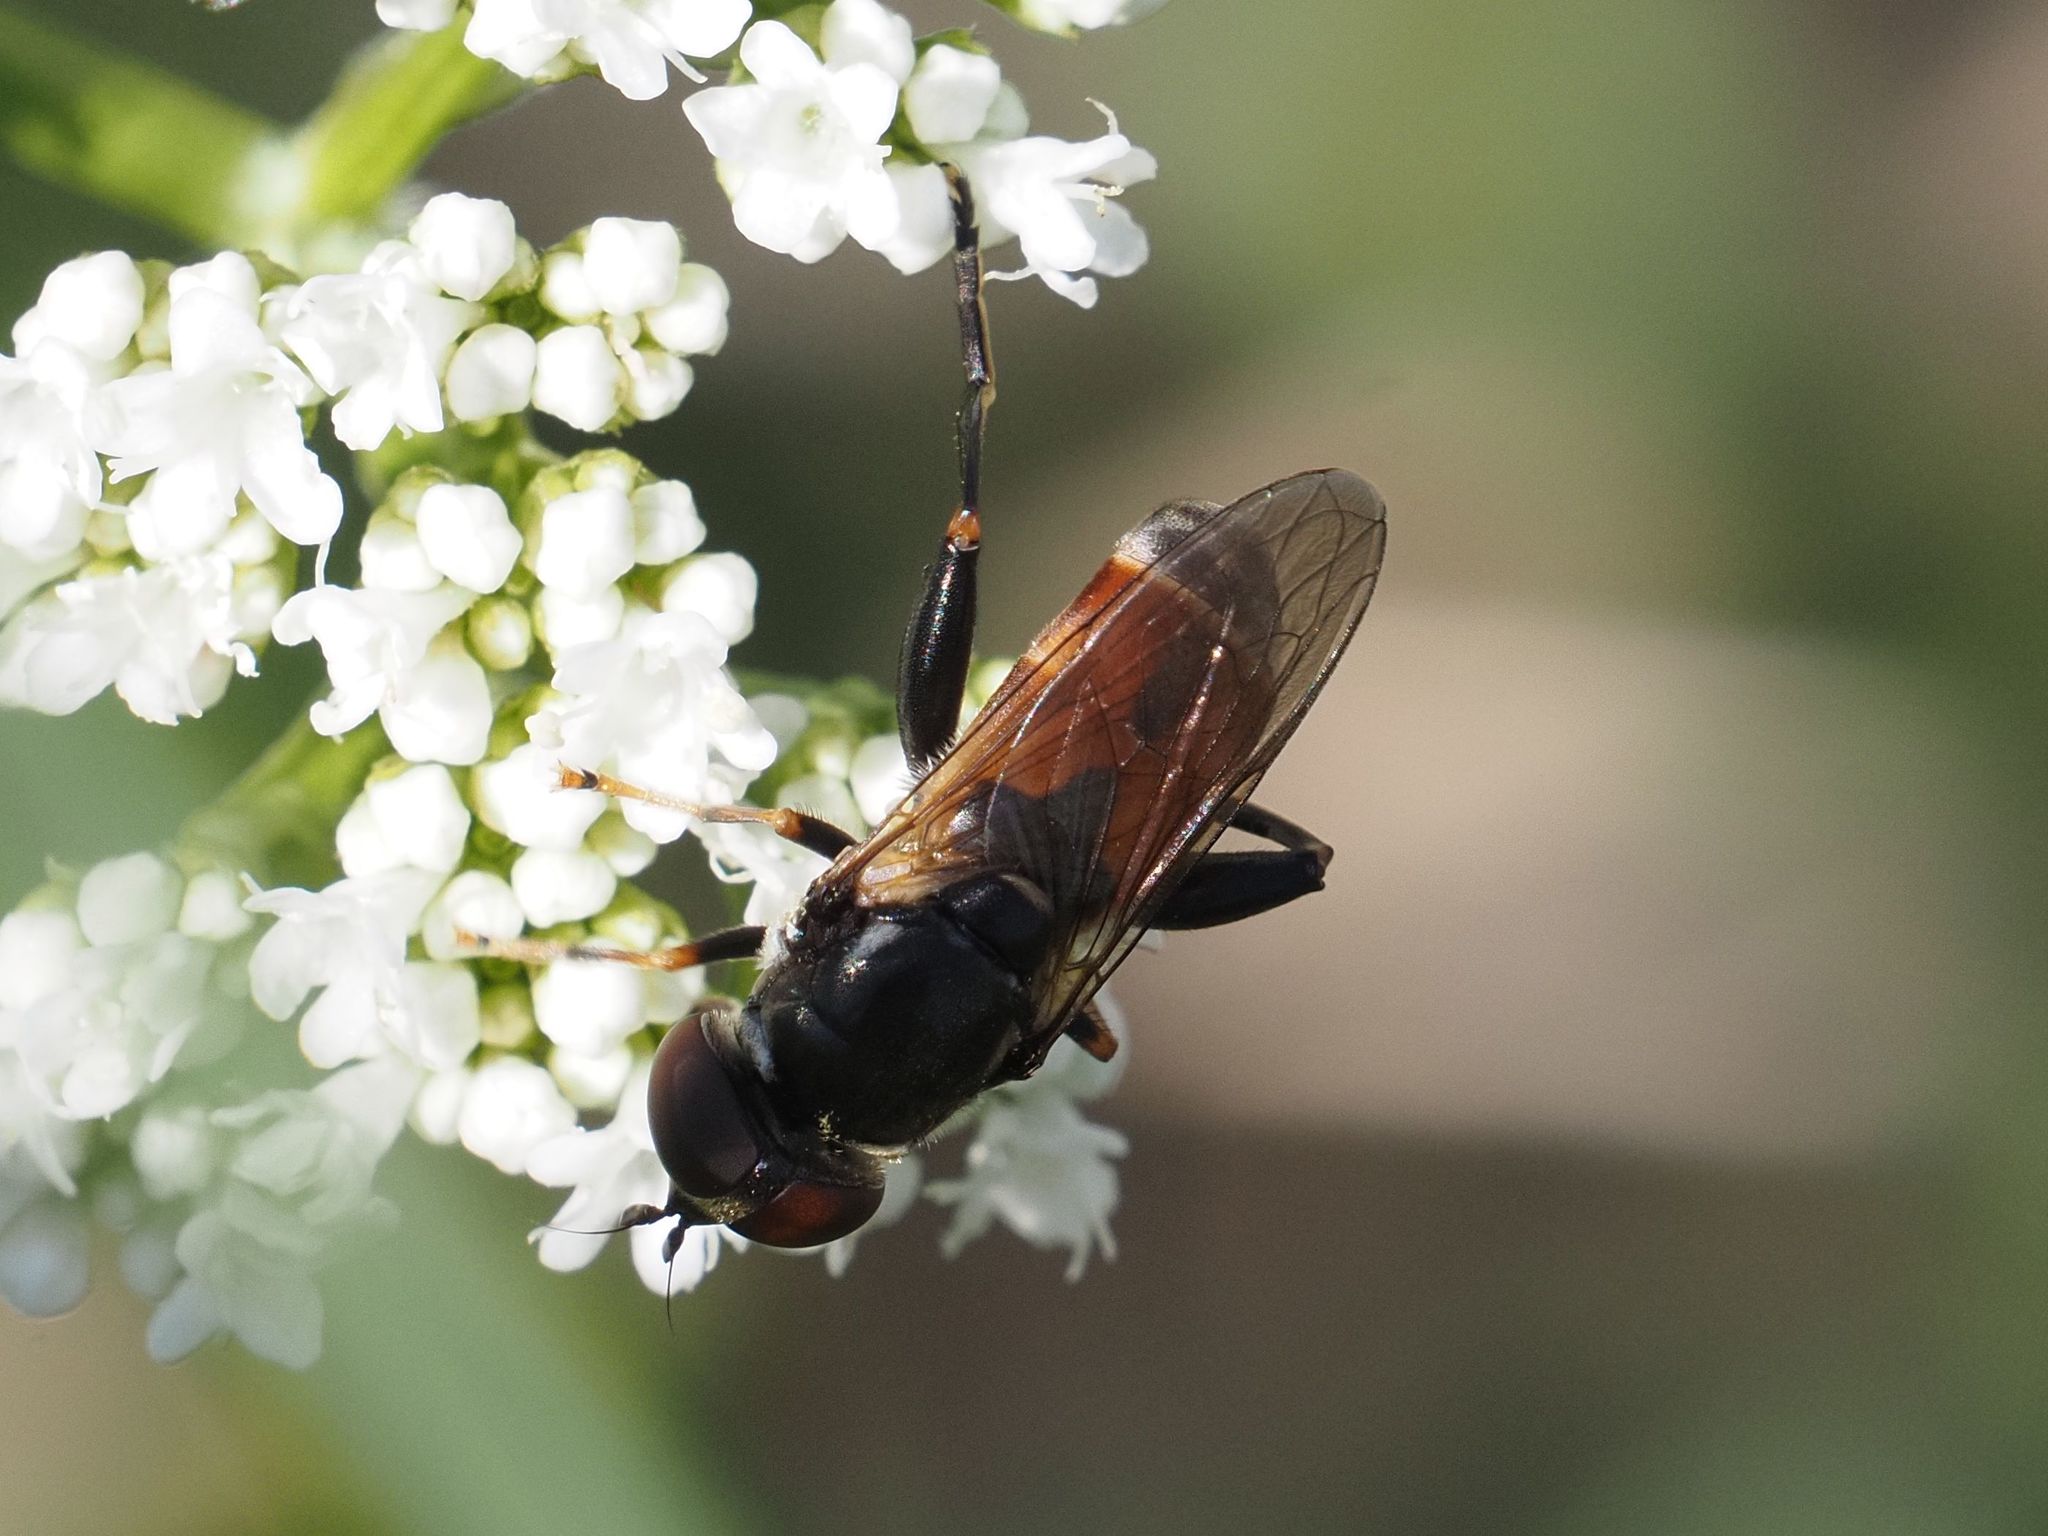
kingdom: Animalia
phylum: Arthropoda
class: Insecta
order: Diptera
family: Syrphidae
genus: Tropidia
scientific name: Tropidia scita
